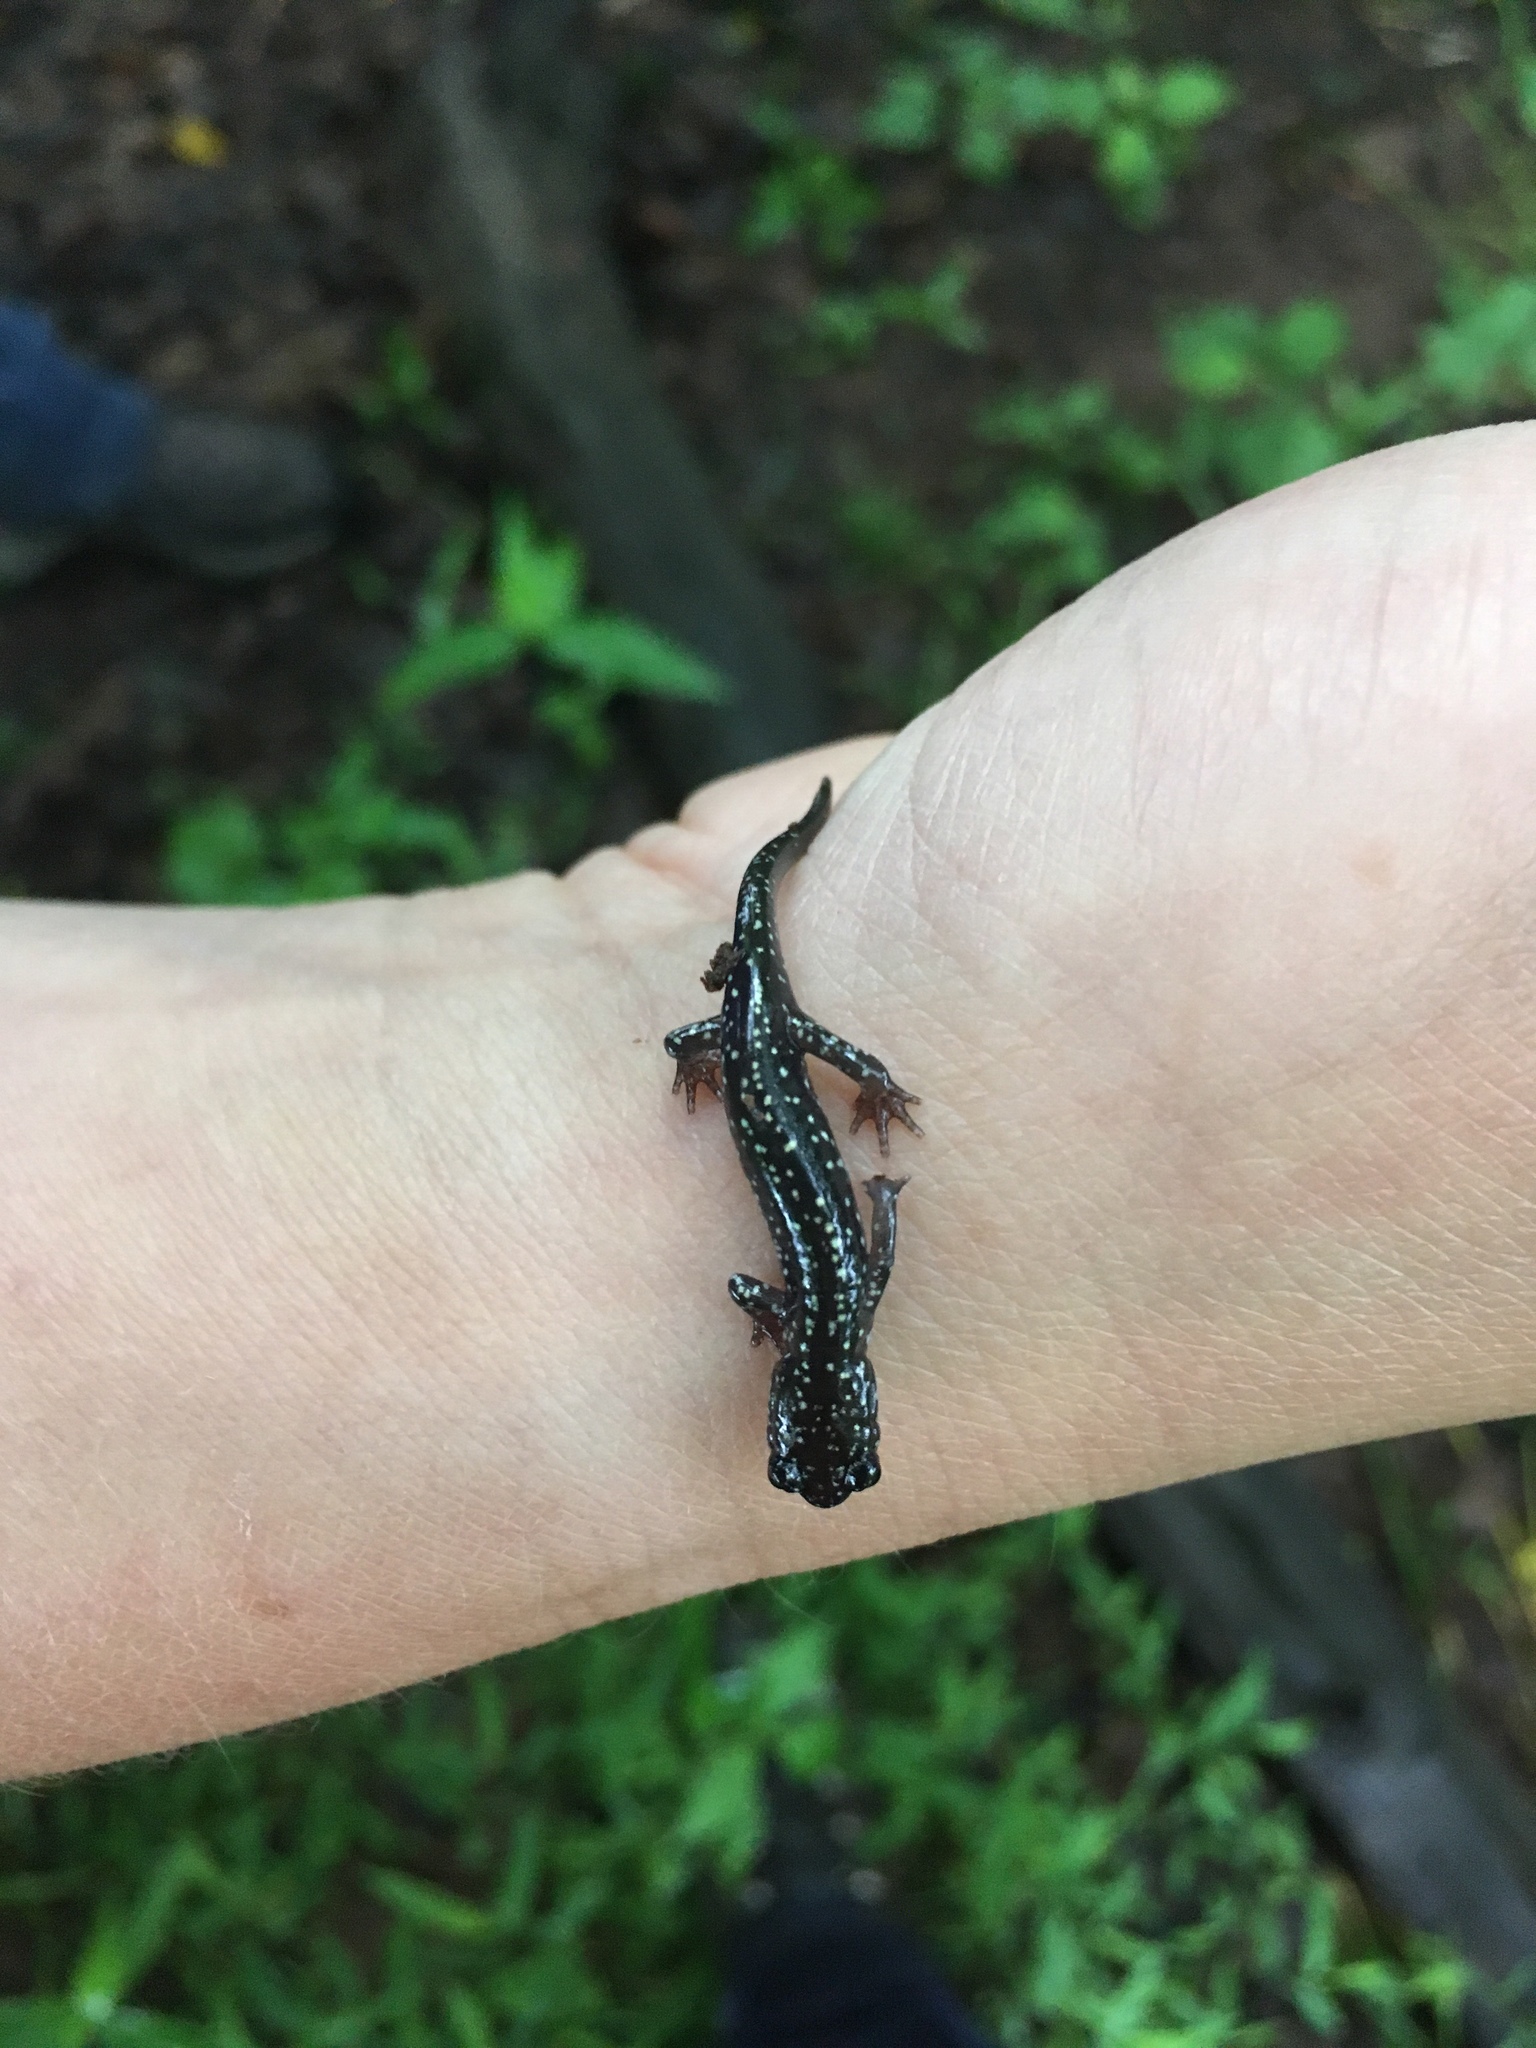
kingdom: Animalia
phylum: Chordata
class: Amphibia
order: Caudata
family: Plethodontidae
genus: Plethodon
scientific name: Plethodon glutinosus
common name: Northern slimy salamander
